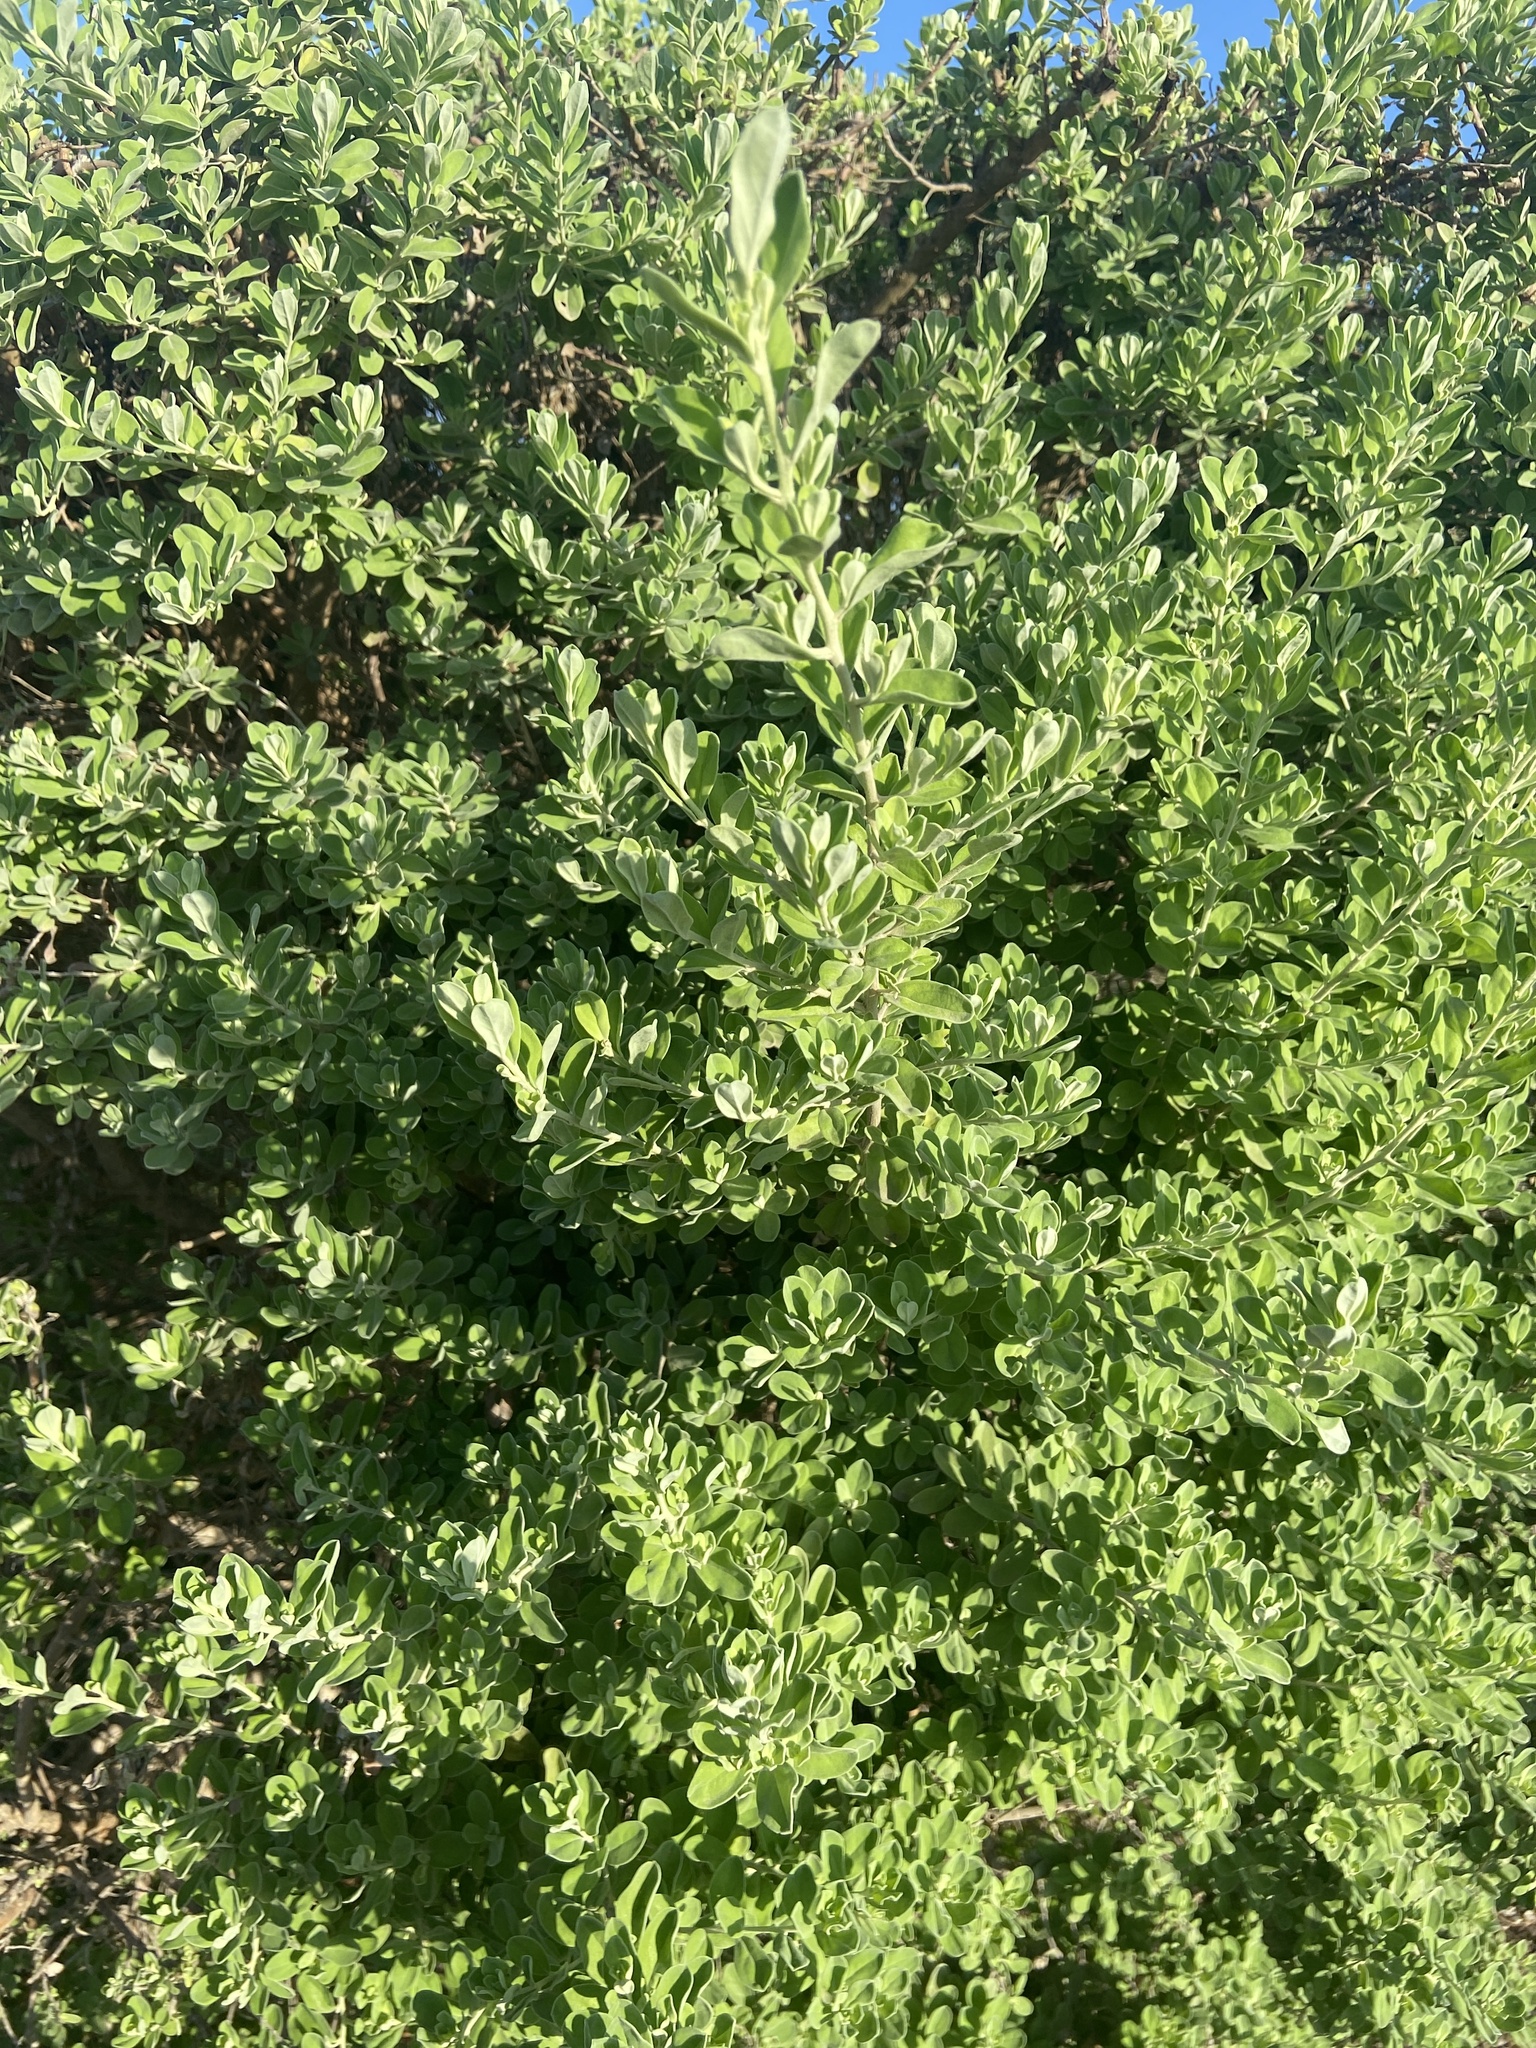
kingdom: Plantae
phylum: Tracheophyta
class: Magnoliopsida
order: Lamiales
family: Scrophulariaceae
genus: Leucophyllum
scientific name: Leucophyllum frutescens
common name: Texas silverleaf
